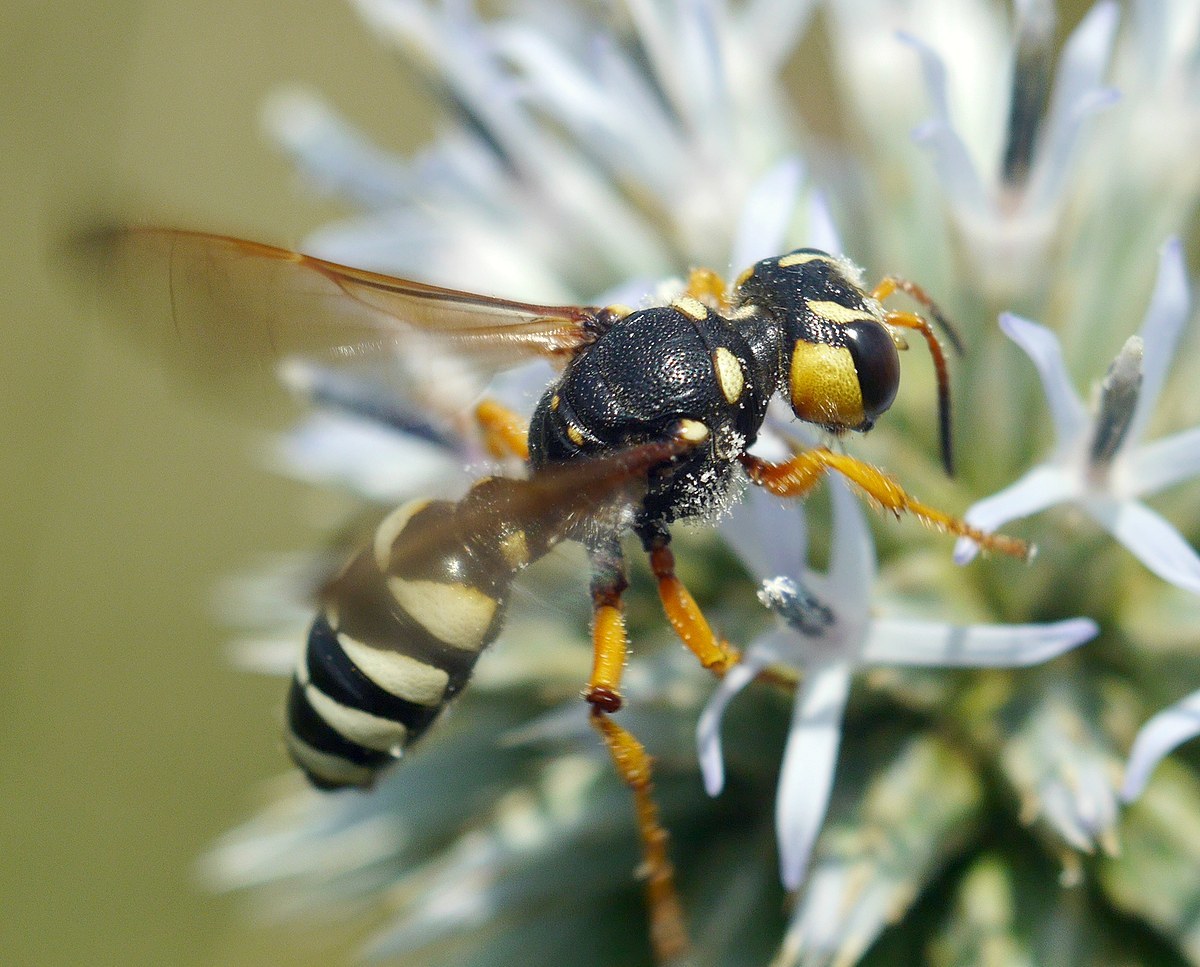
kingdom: Animalia
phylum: Arthropoda
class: Insecta
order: Hymenoptera
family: Crabronidae
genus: Cerceris
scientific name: Cerceris tuberculata
